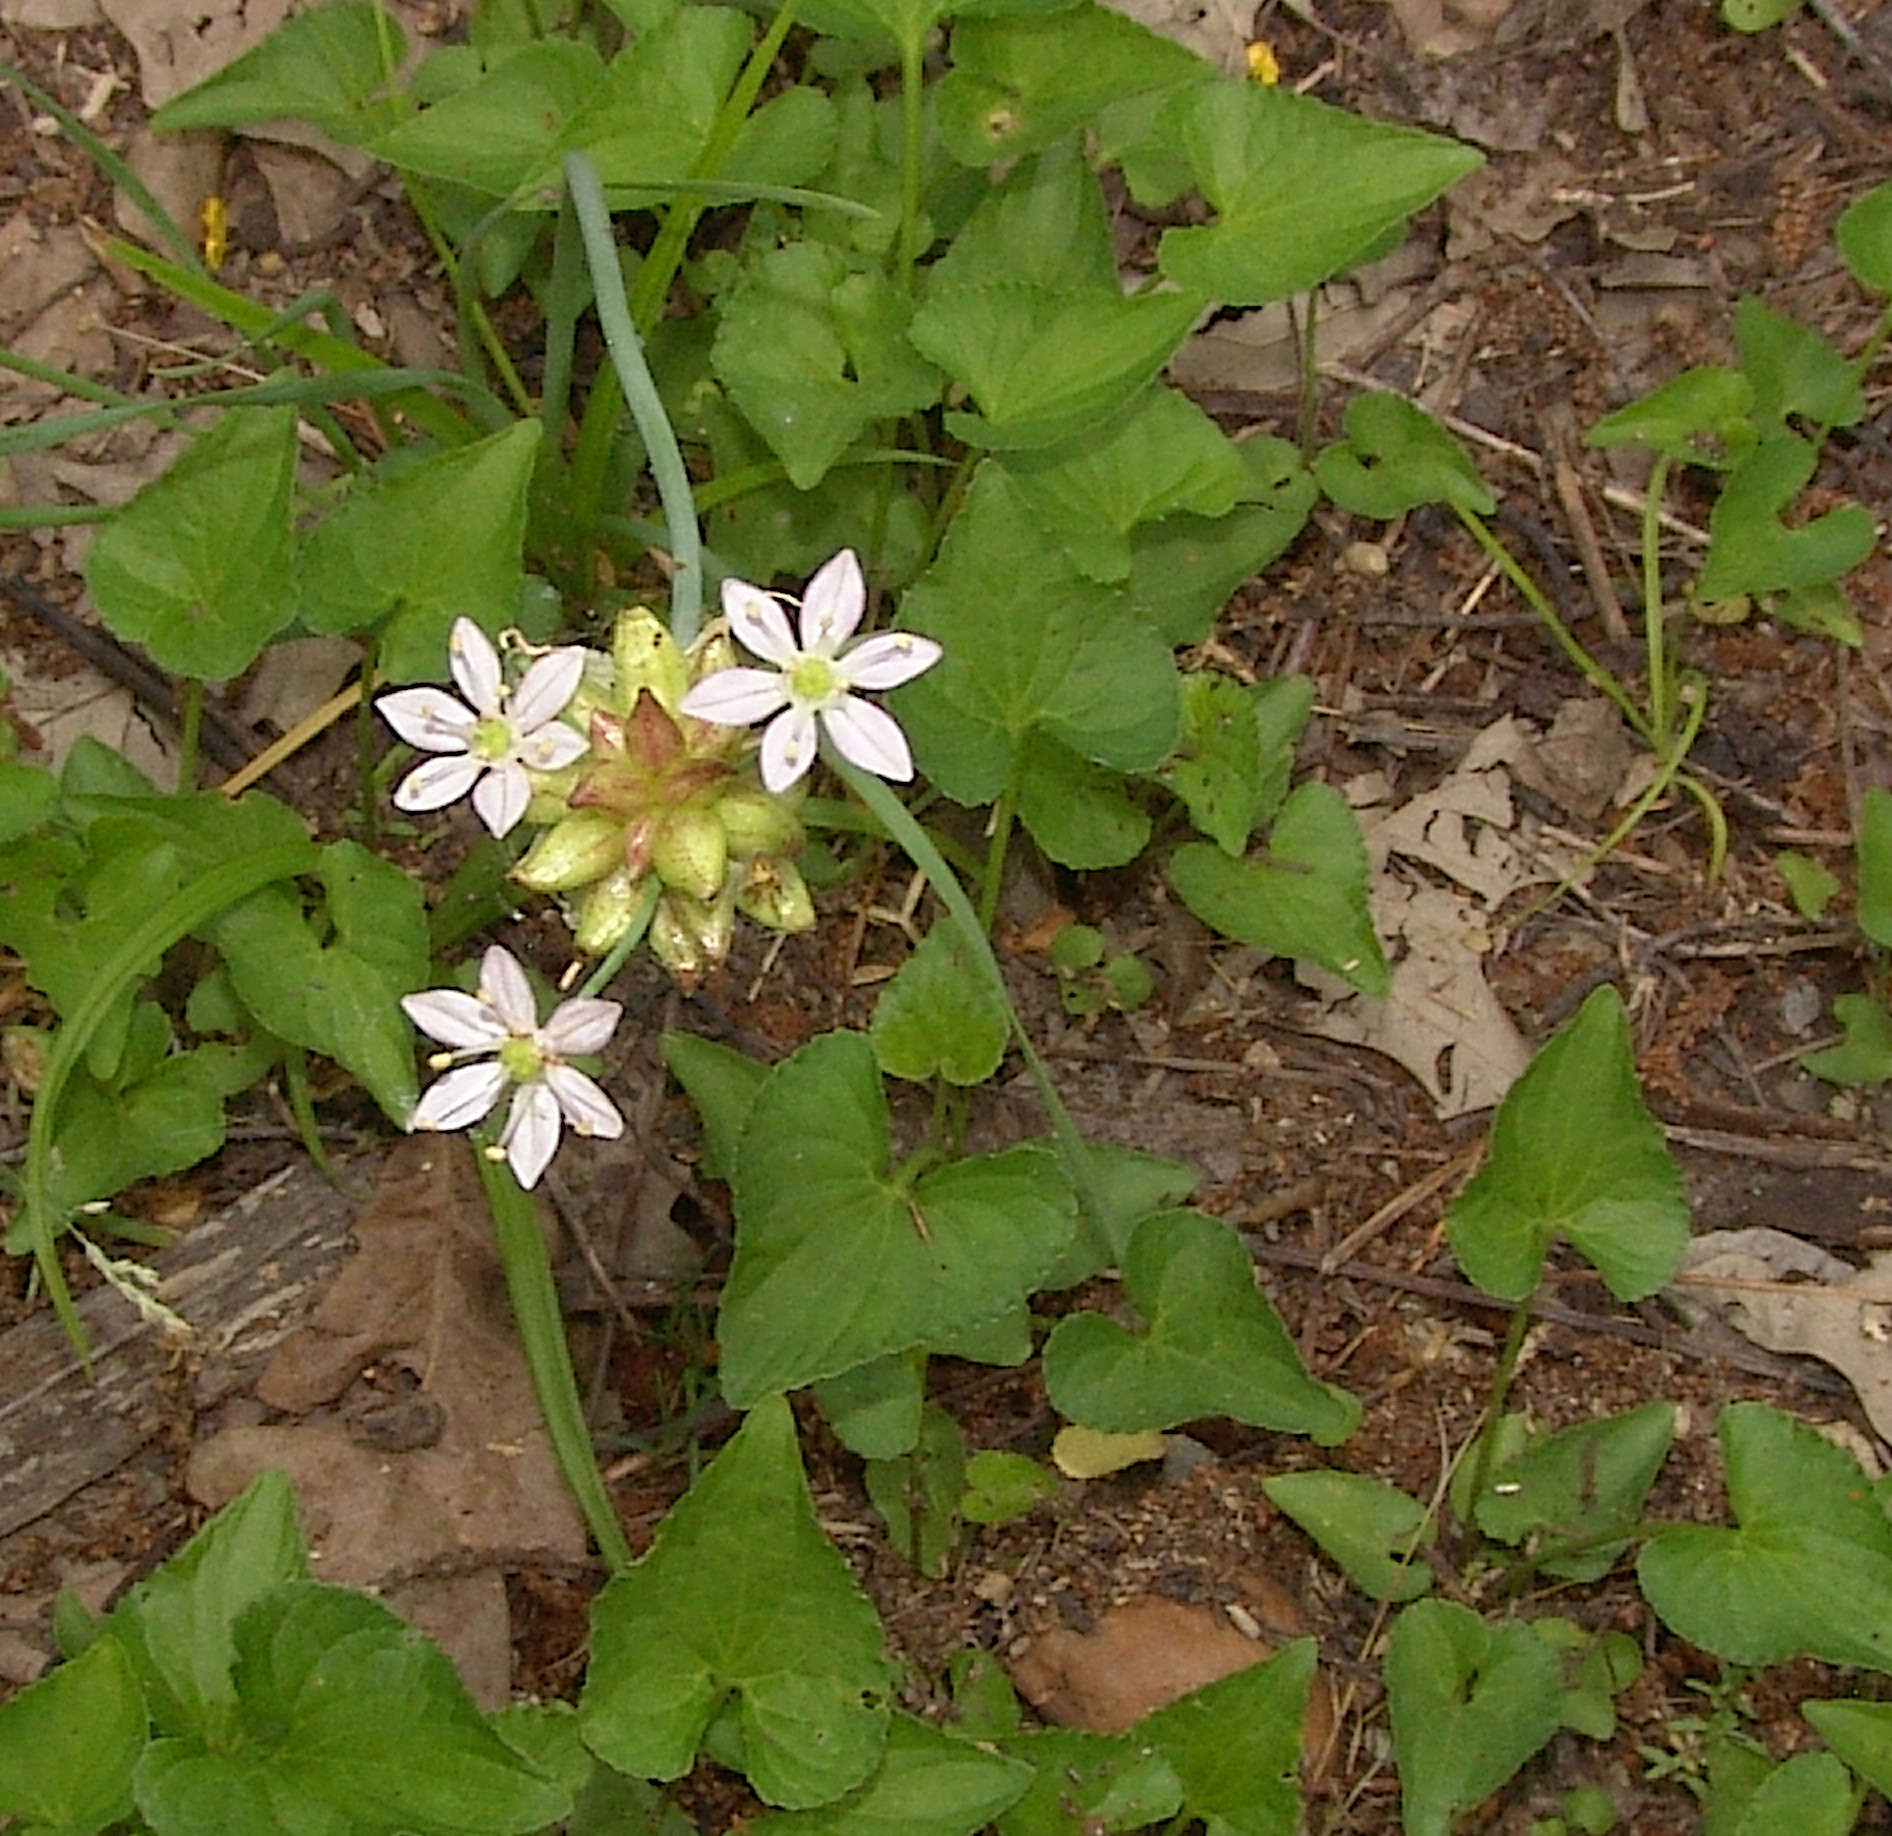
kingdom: Plantae
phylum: Tracheophyta
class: Liliopsida
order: Asparagales
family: Amaryllidaceae
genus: Allium
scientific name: Allium canadense
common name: Meadow garlic
